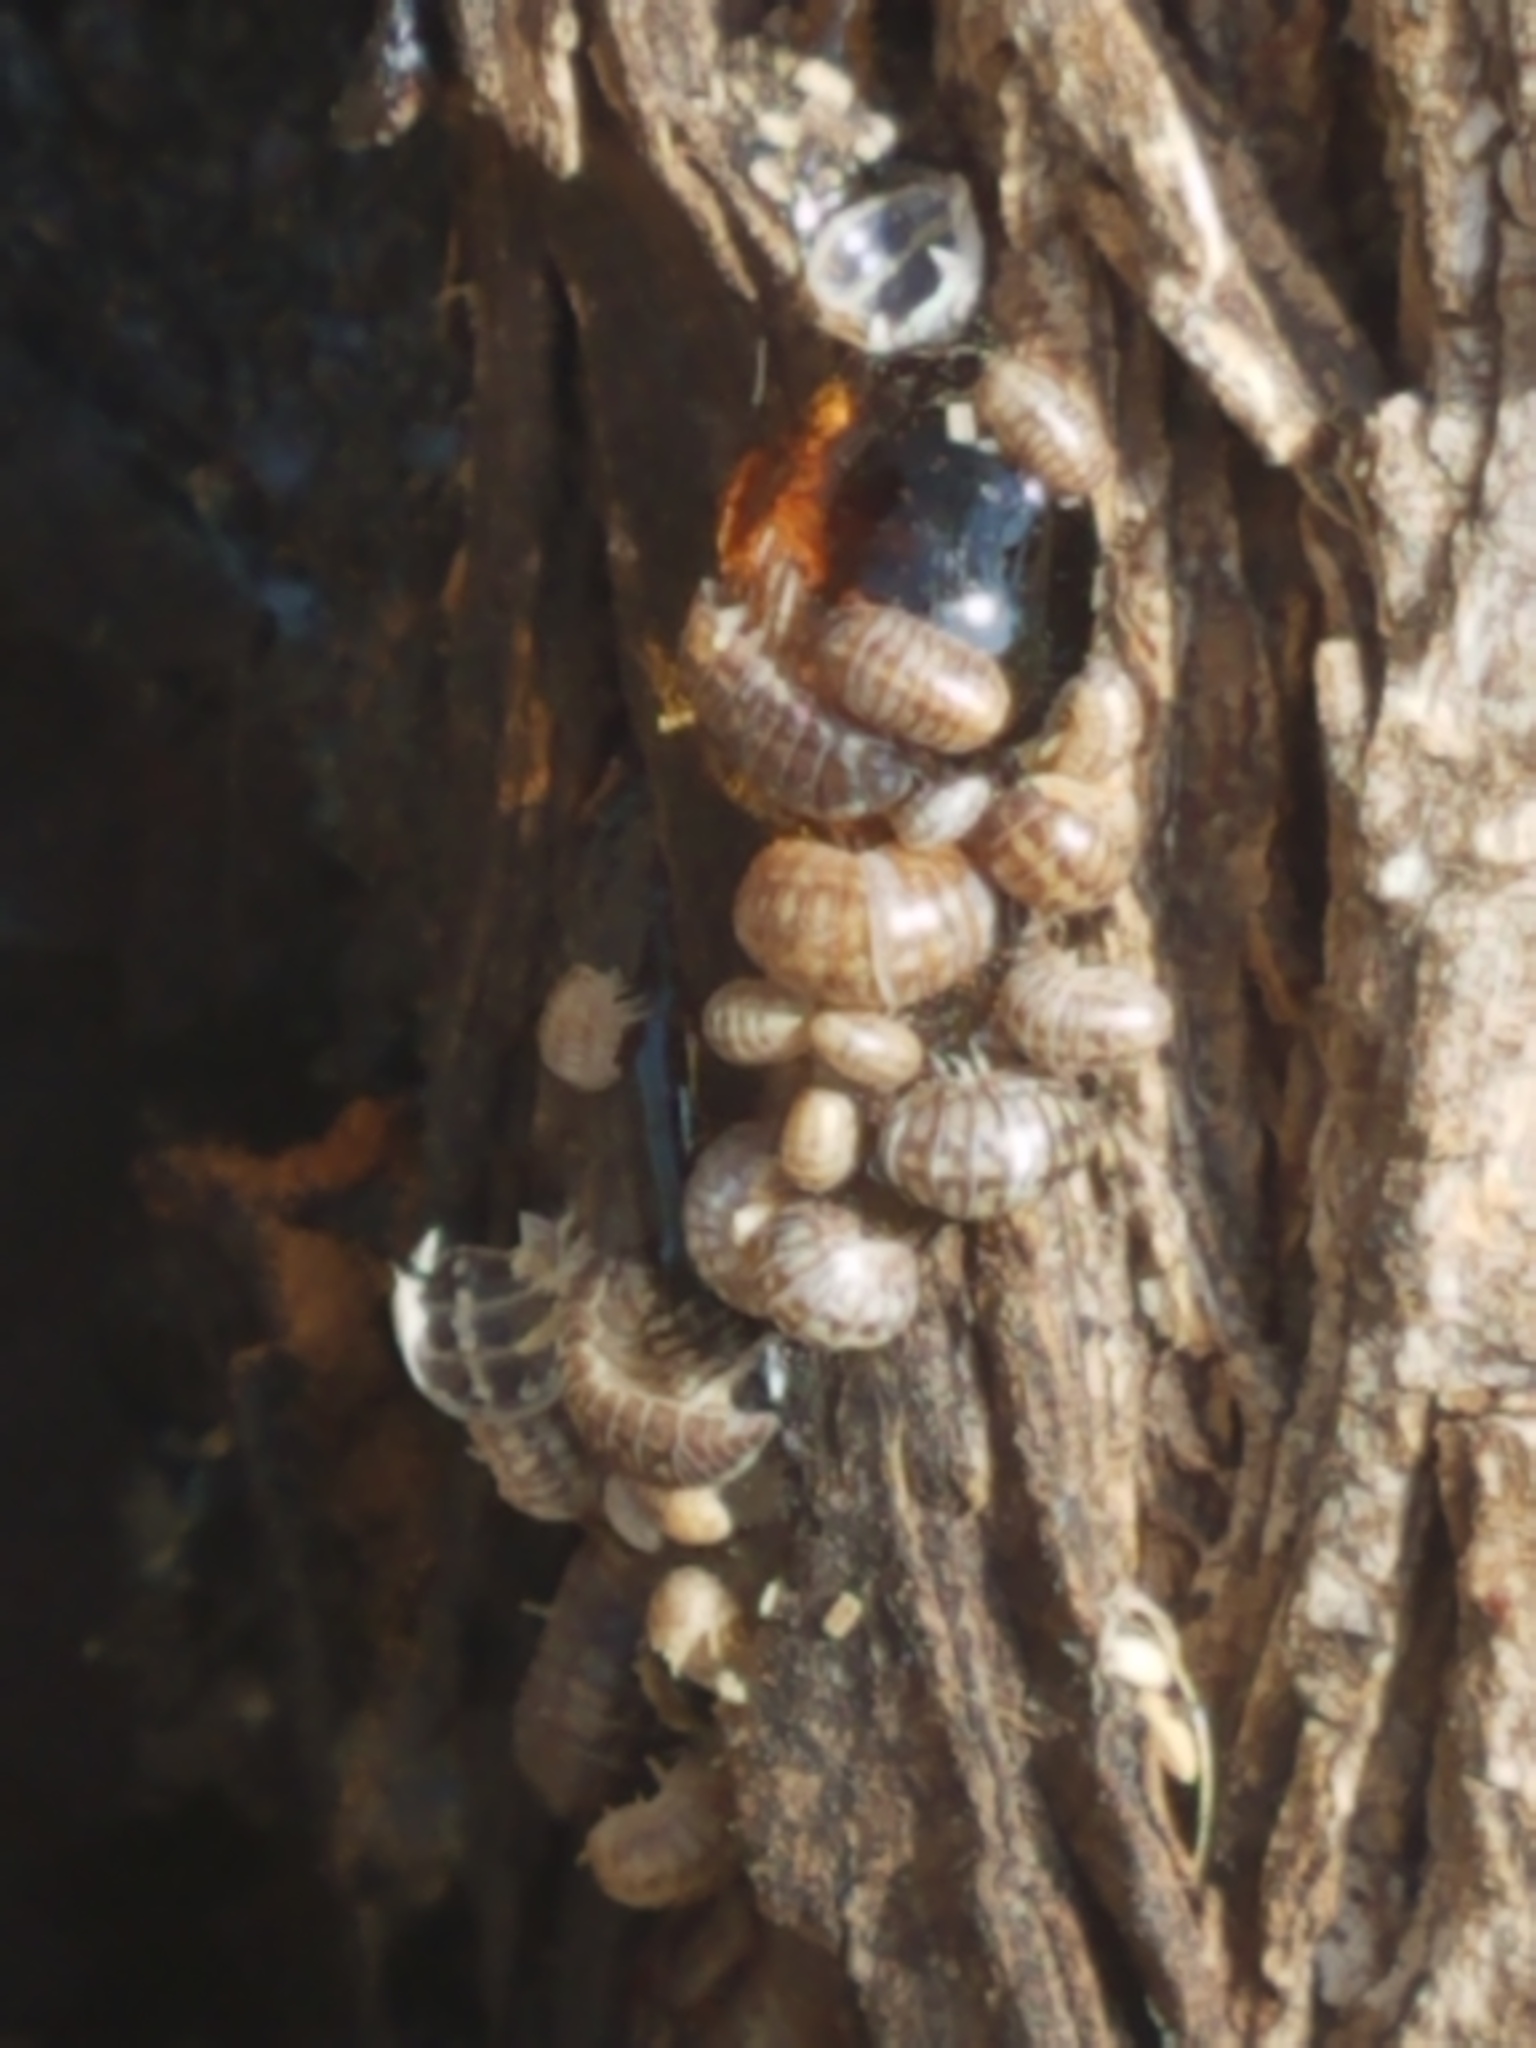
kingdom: Animalia
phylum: Arthropoda
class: Malacostraca
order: Isopoda
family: Armadillidiidae
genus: Armadillidium
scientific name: Armadillidium vulgare
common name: Common pill woodlouse
